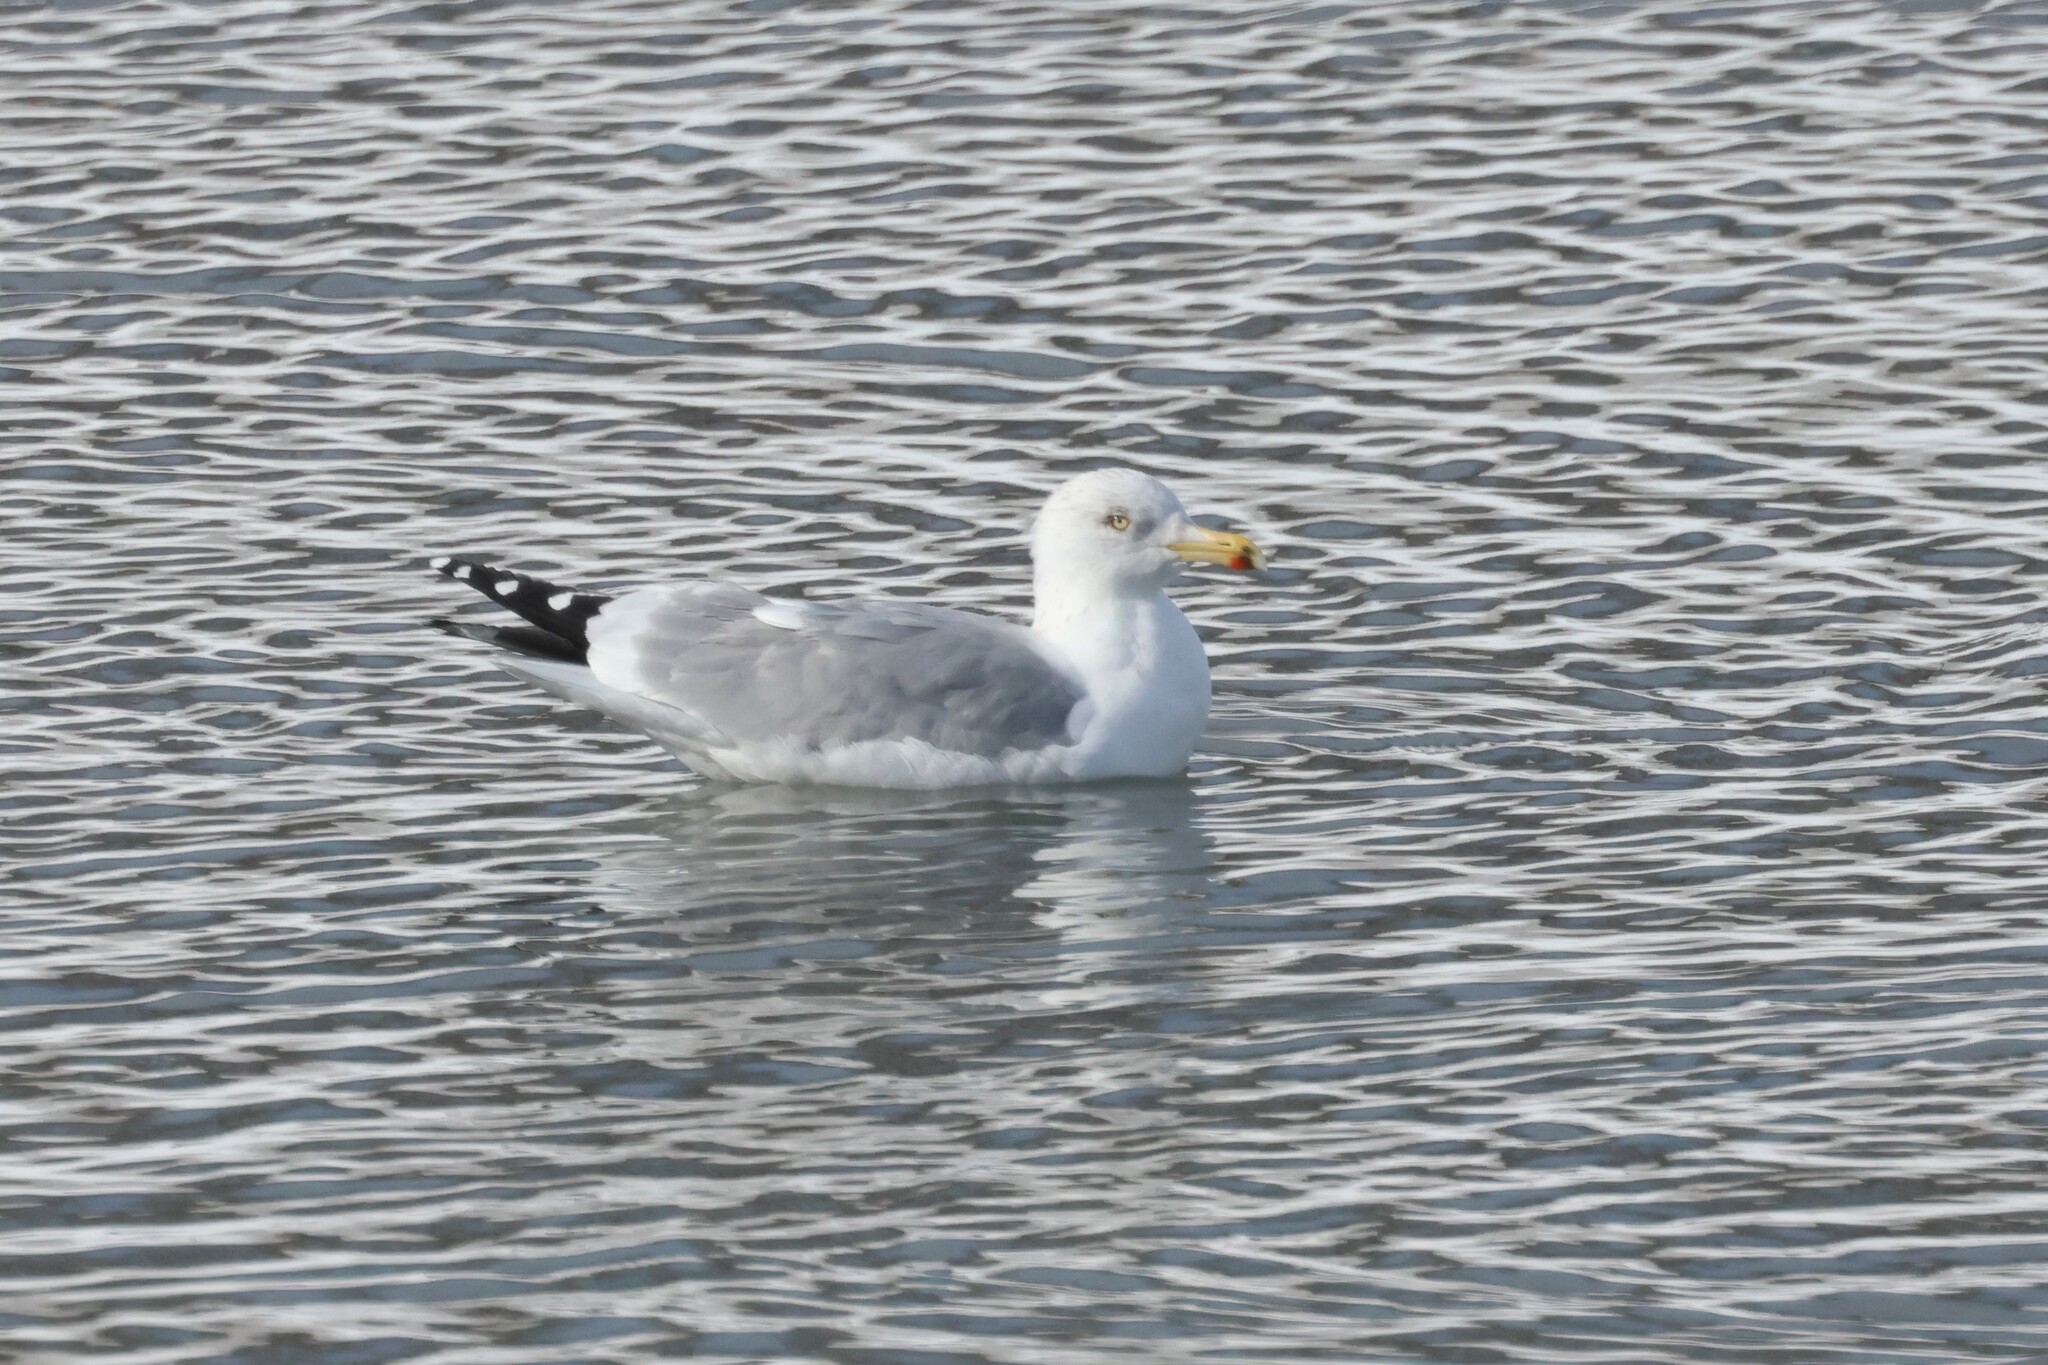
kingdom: Animalia
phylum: Chordata
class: Aves
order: Charadriiformes
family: Laridae
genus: Larus
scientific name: Larus argentatus
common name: Herring gull
